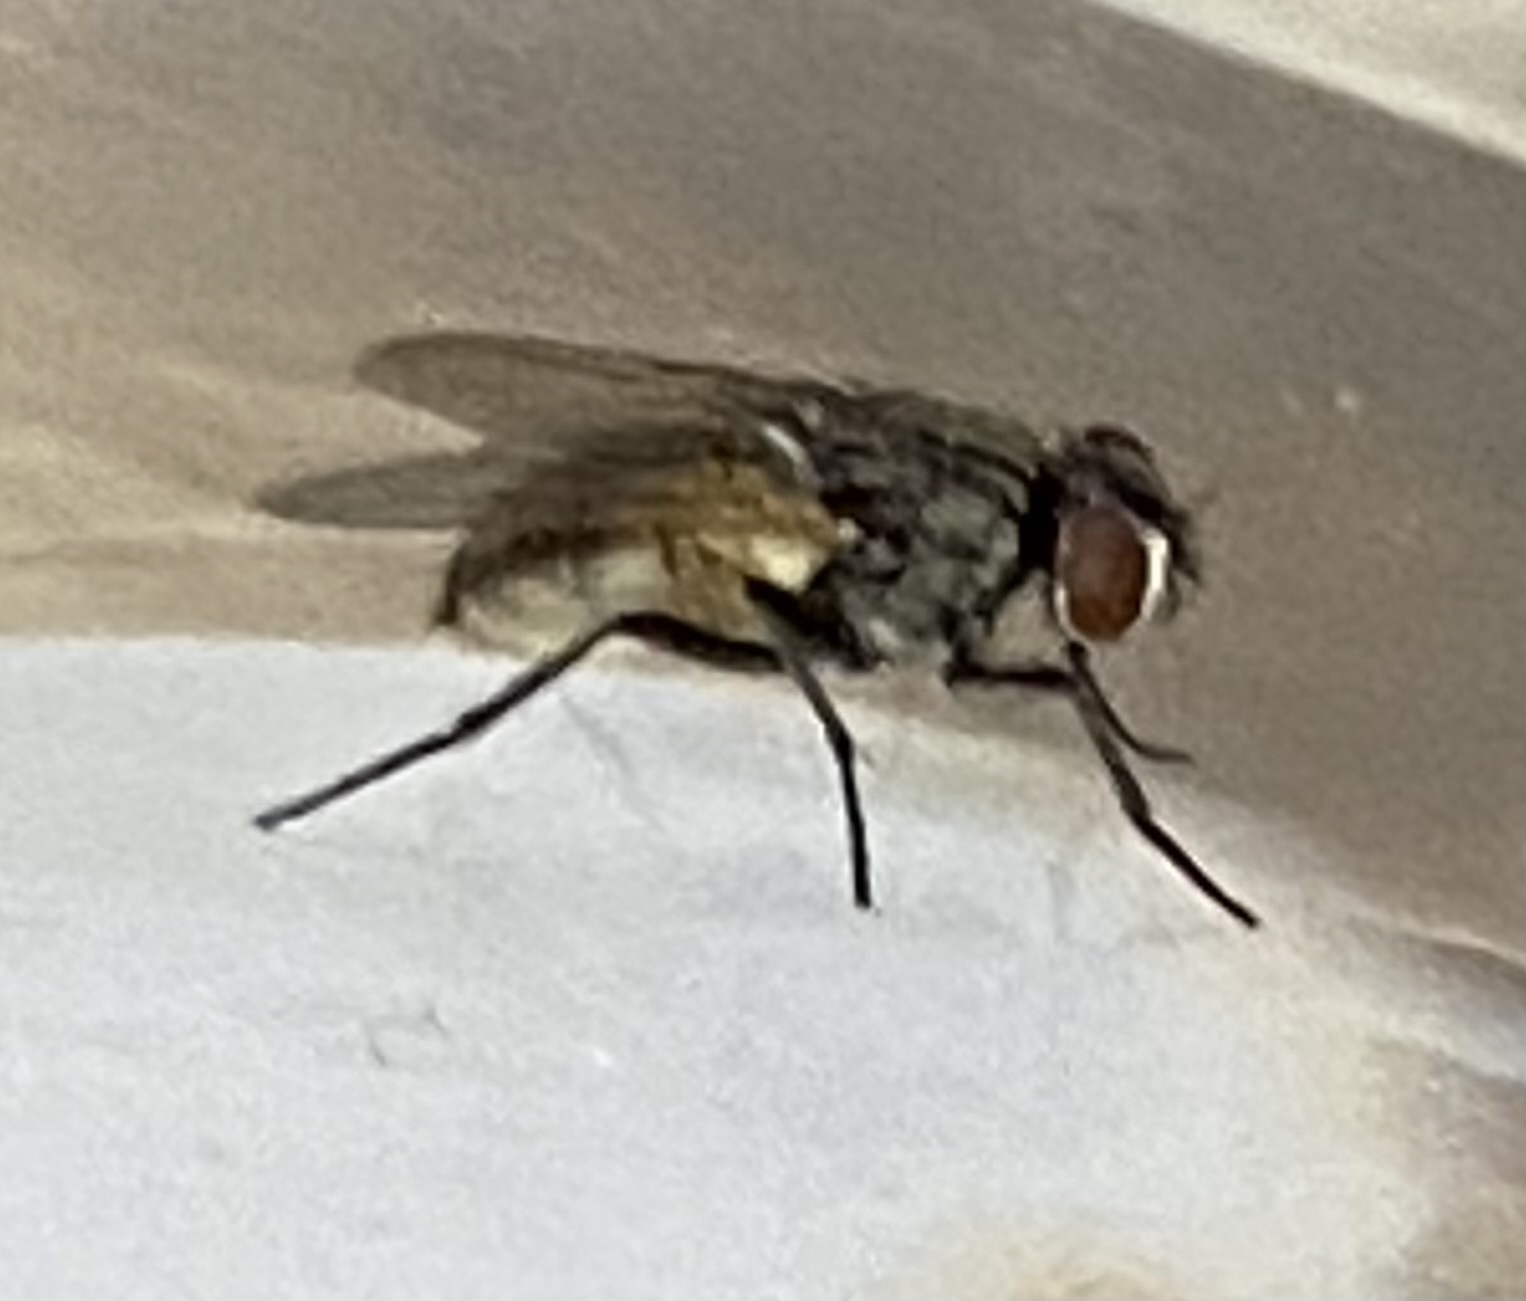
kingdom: Animalia
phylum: Arthropoda
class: Insecta
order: Diptera
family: Muscidae
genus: Musca
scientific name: Musca domestica
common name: House fly
